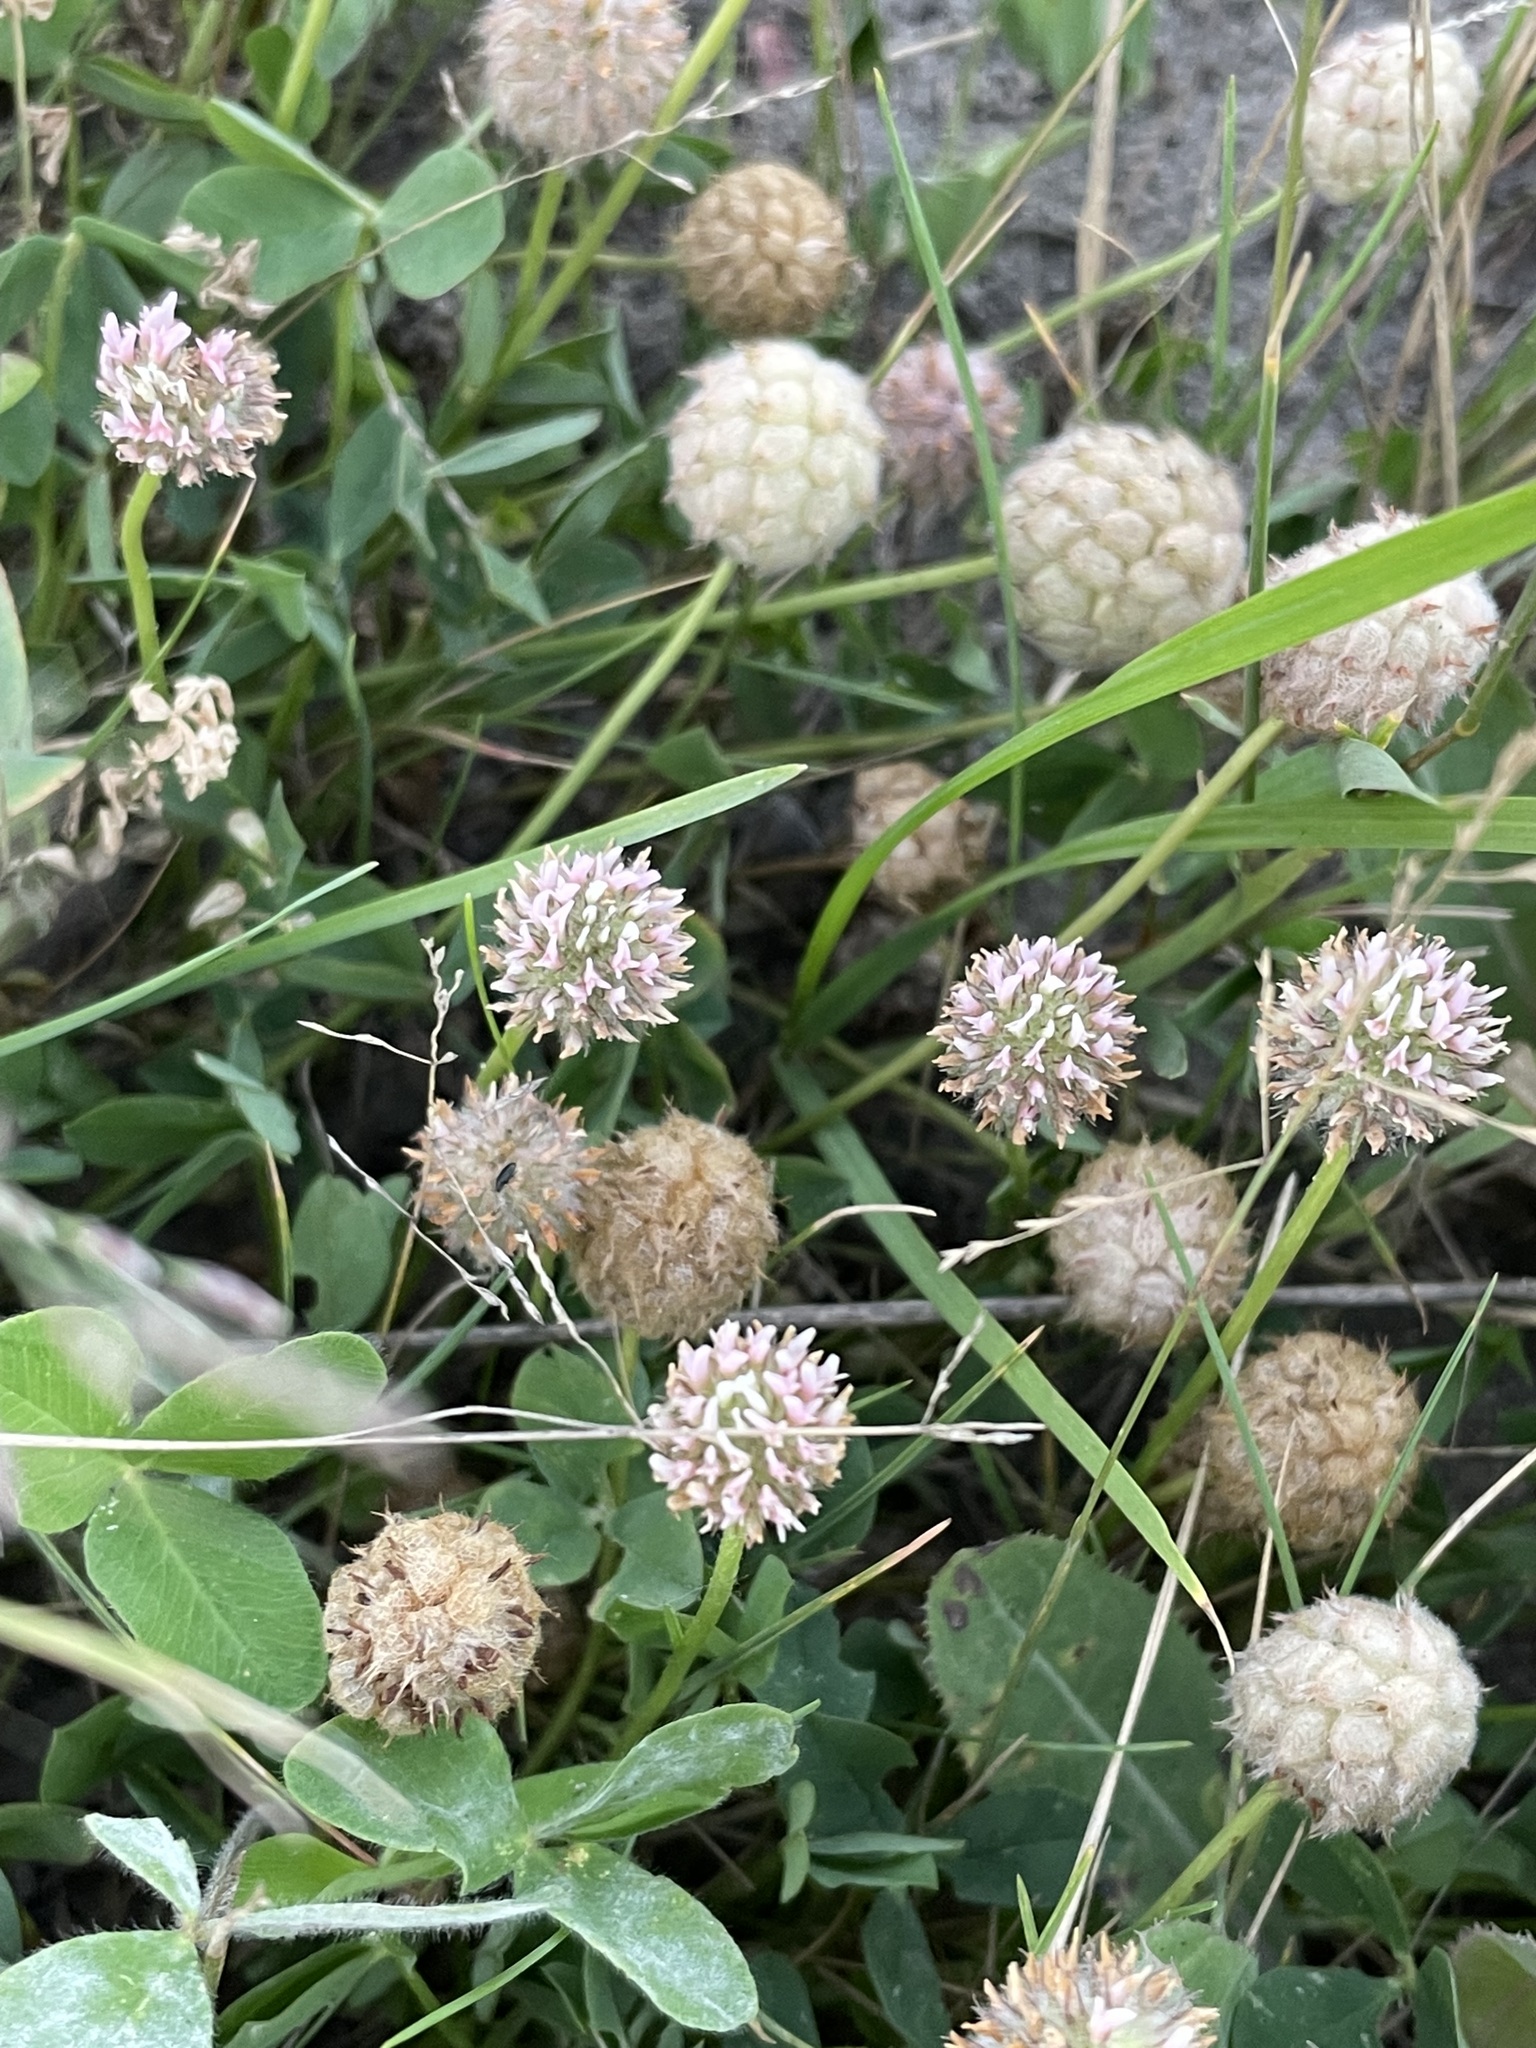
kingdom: Plantae
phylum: Tracheophyta
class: Magnoliopsida
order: Fabales
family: Fabaceae
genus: Trifolium
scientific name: Trifolium fragiferum
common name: Strawberry clover
